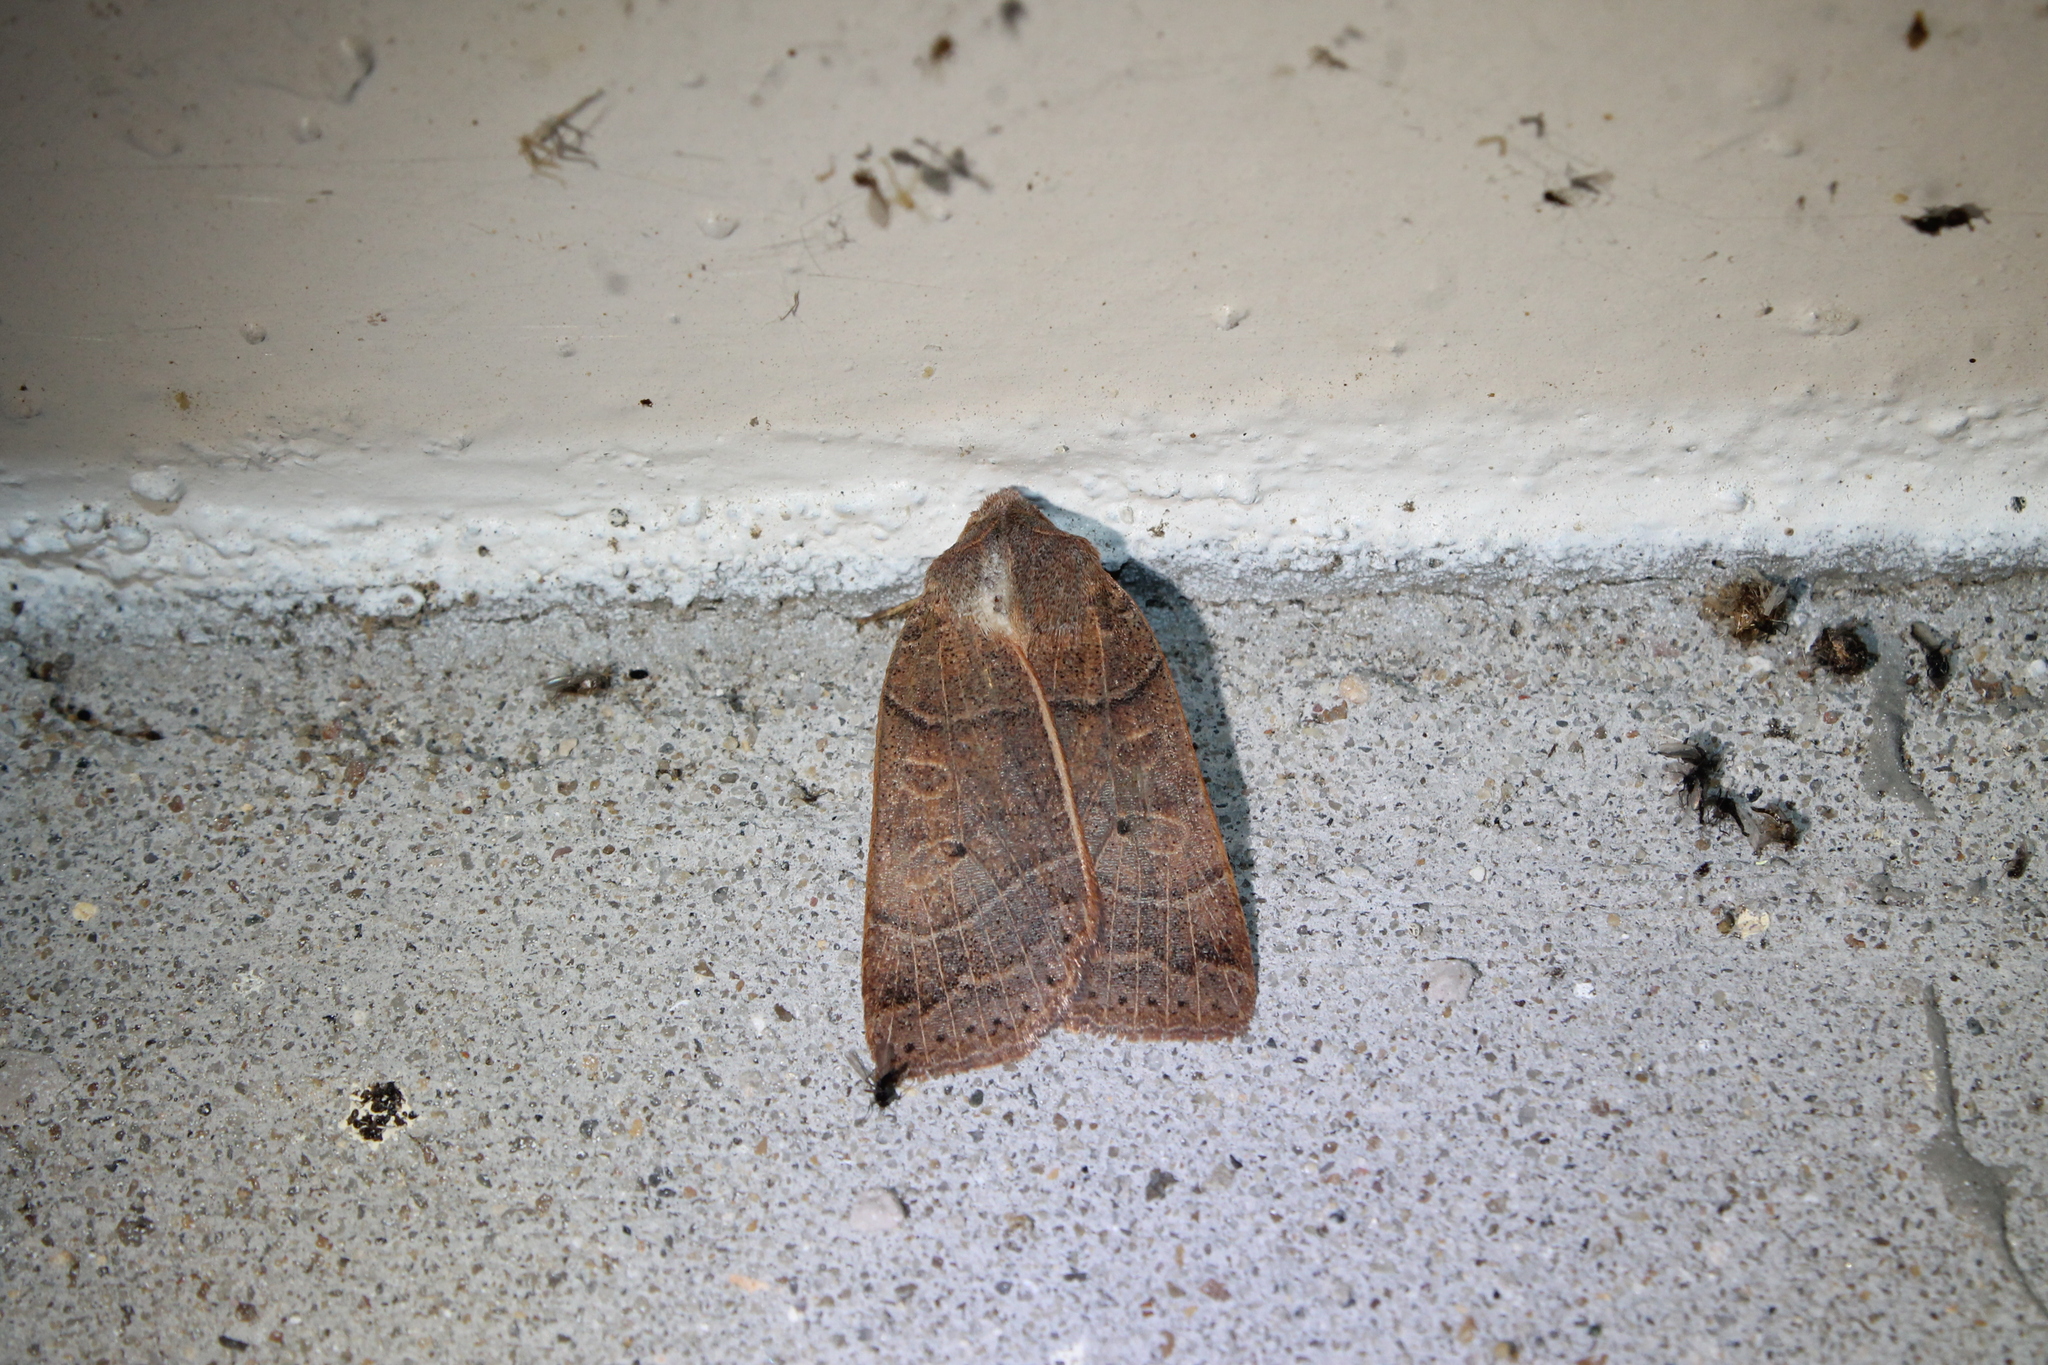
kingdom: Animalia
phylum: Arthropoda
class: Insecta
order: Lepidoptera
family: Noctuidae
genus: Chaetaglaea
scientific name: Chaetaglaea sericea
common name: Silky sallow
